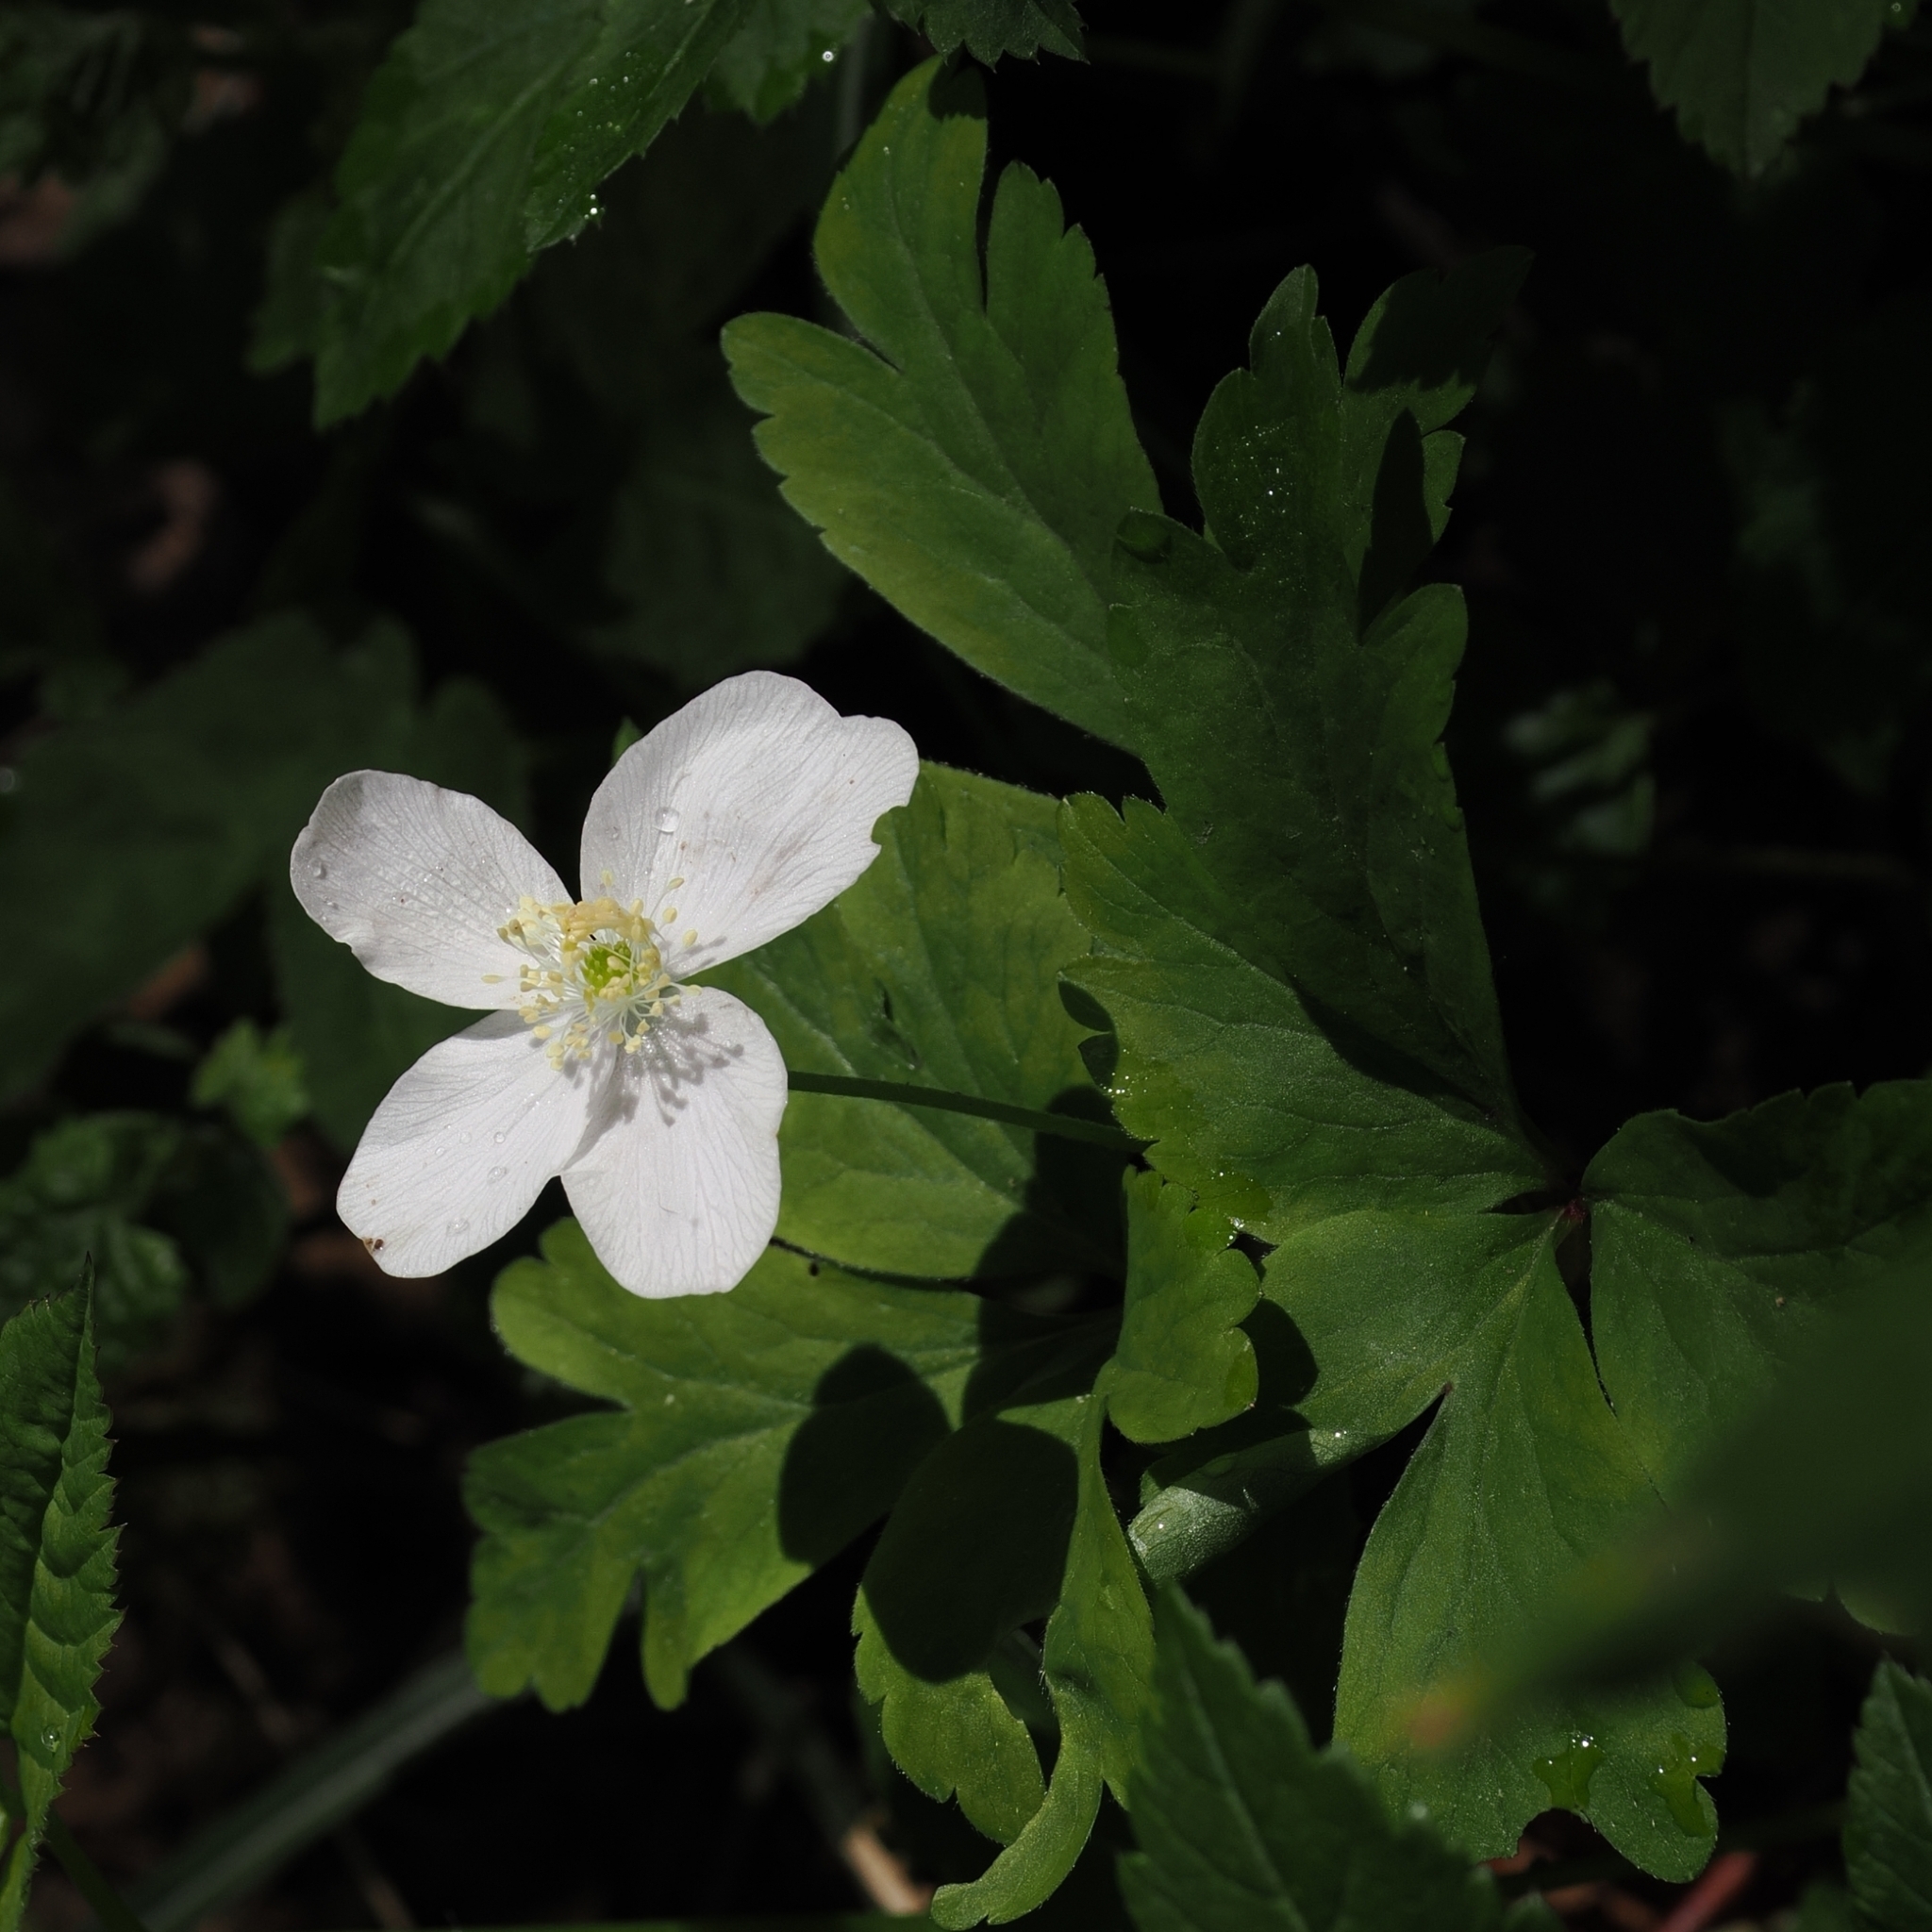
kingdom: Plantae
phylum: Tracheophyta
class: Magnoliopsida
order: Ranunculales
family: Ranunculaceae
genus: Anemone
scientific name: Anemone nemorosa
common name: Wood anemone
